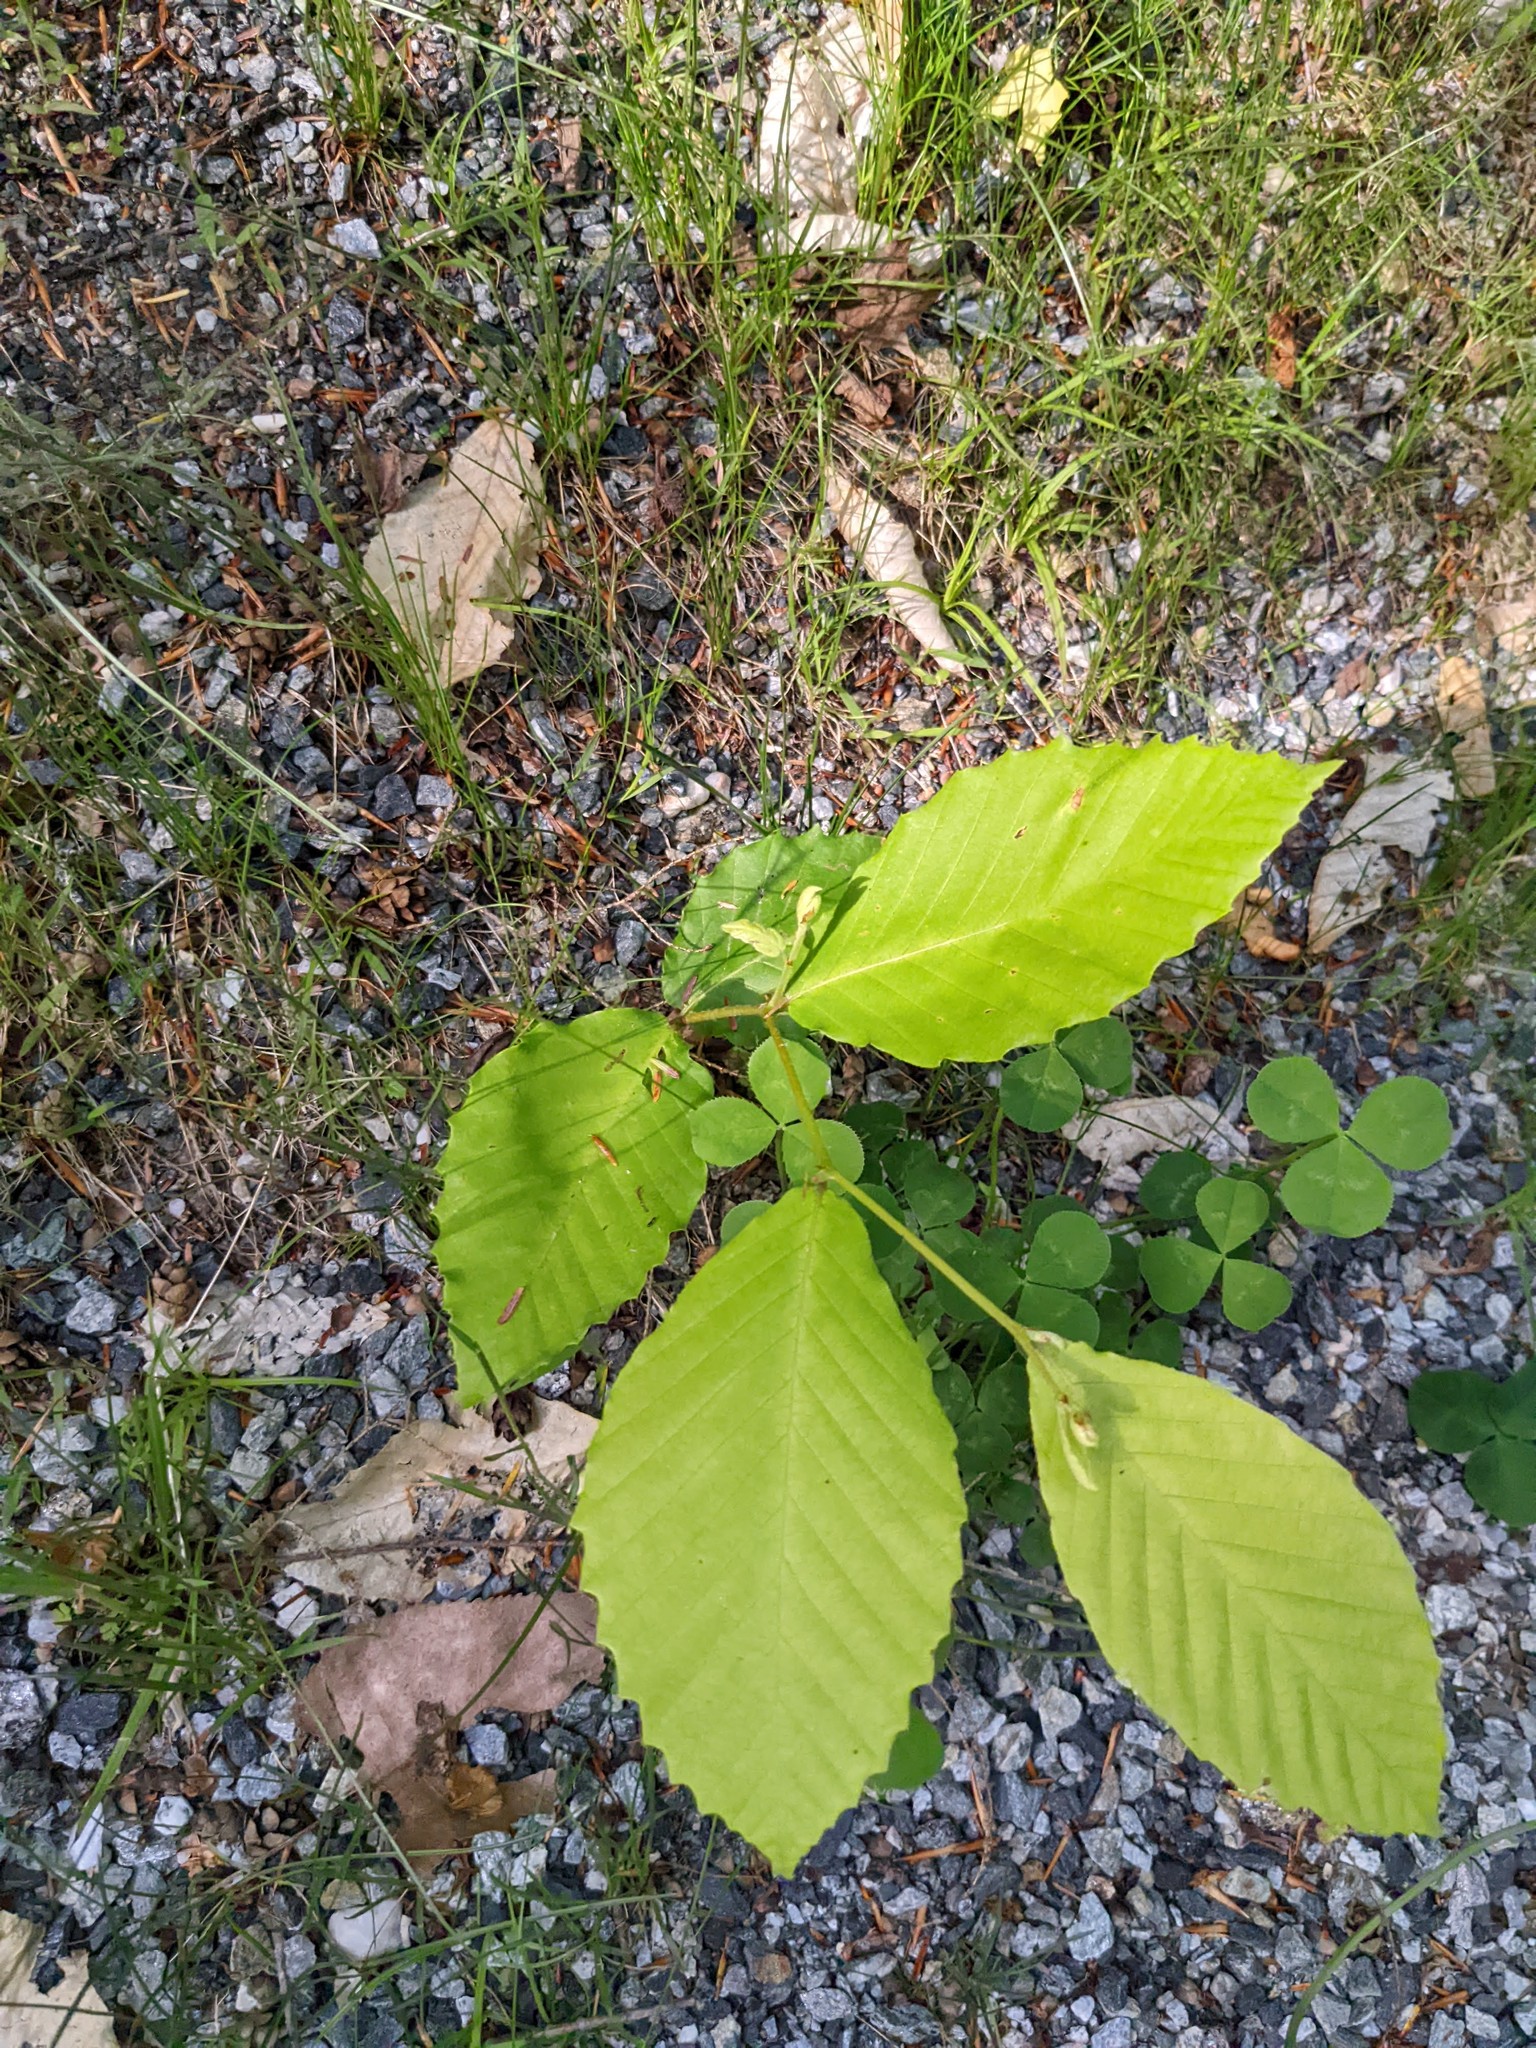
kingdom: Plantae
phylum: Tracheophyta
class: Magnoliopsida
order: Fagales
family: Fagaceae
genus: Fagus
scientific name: Fagus grandifolia
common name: American beech
